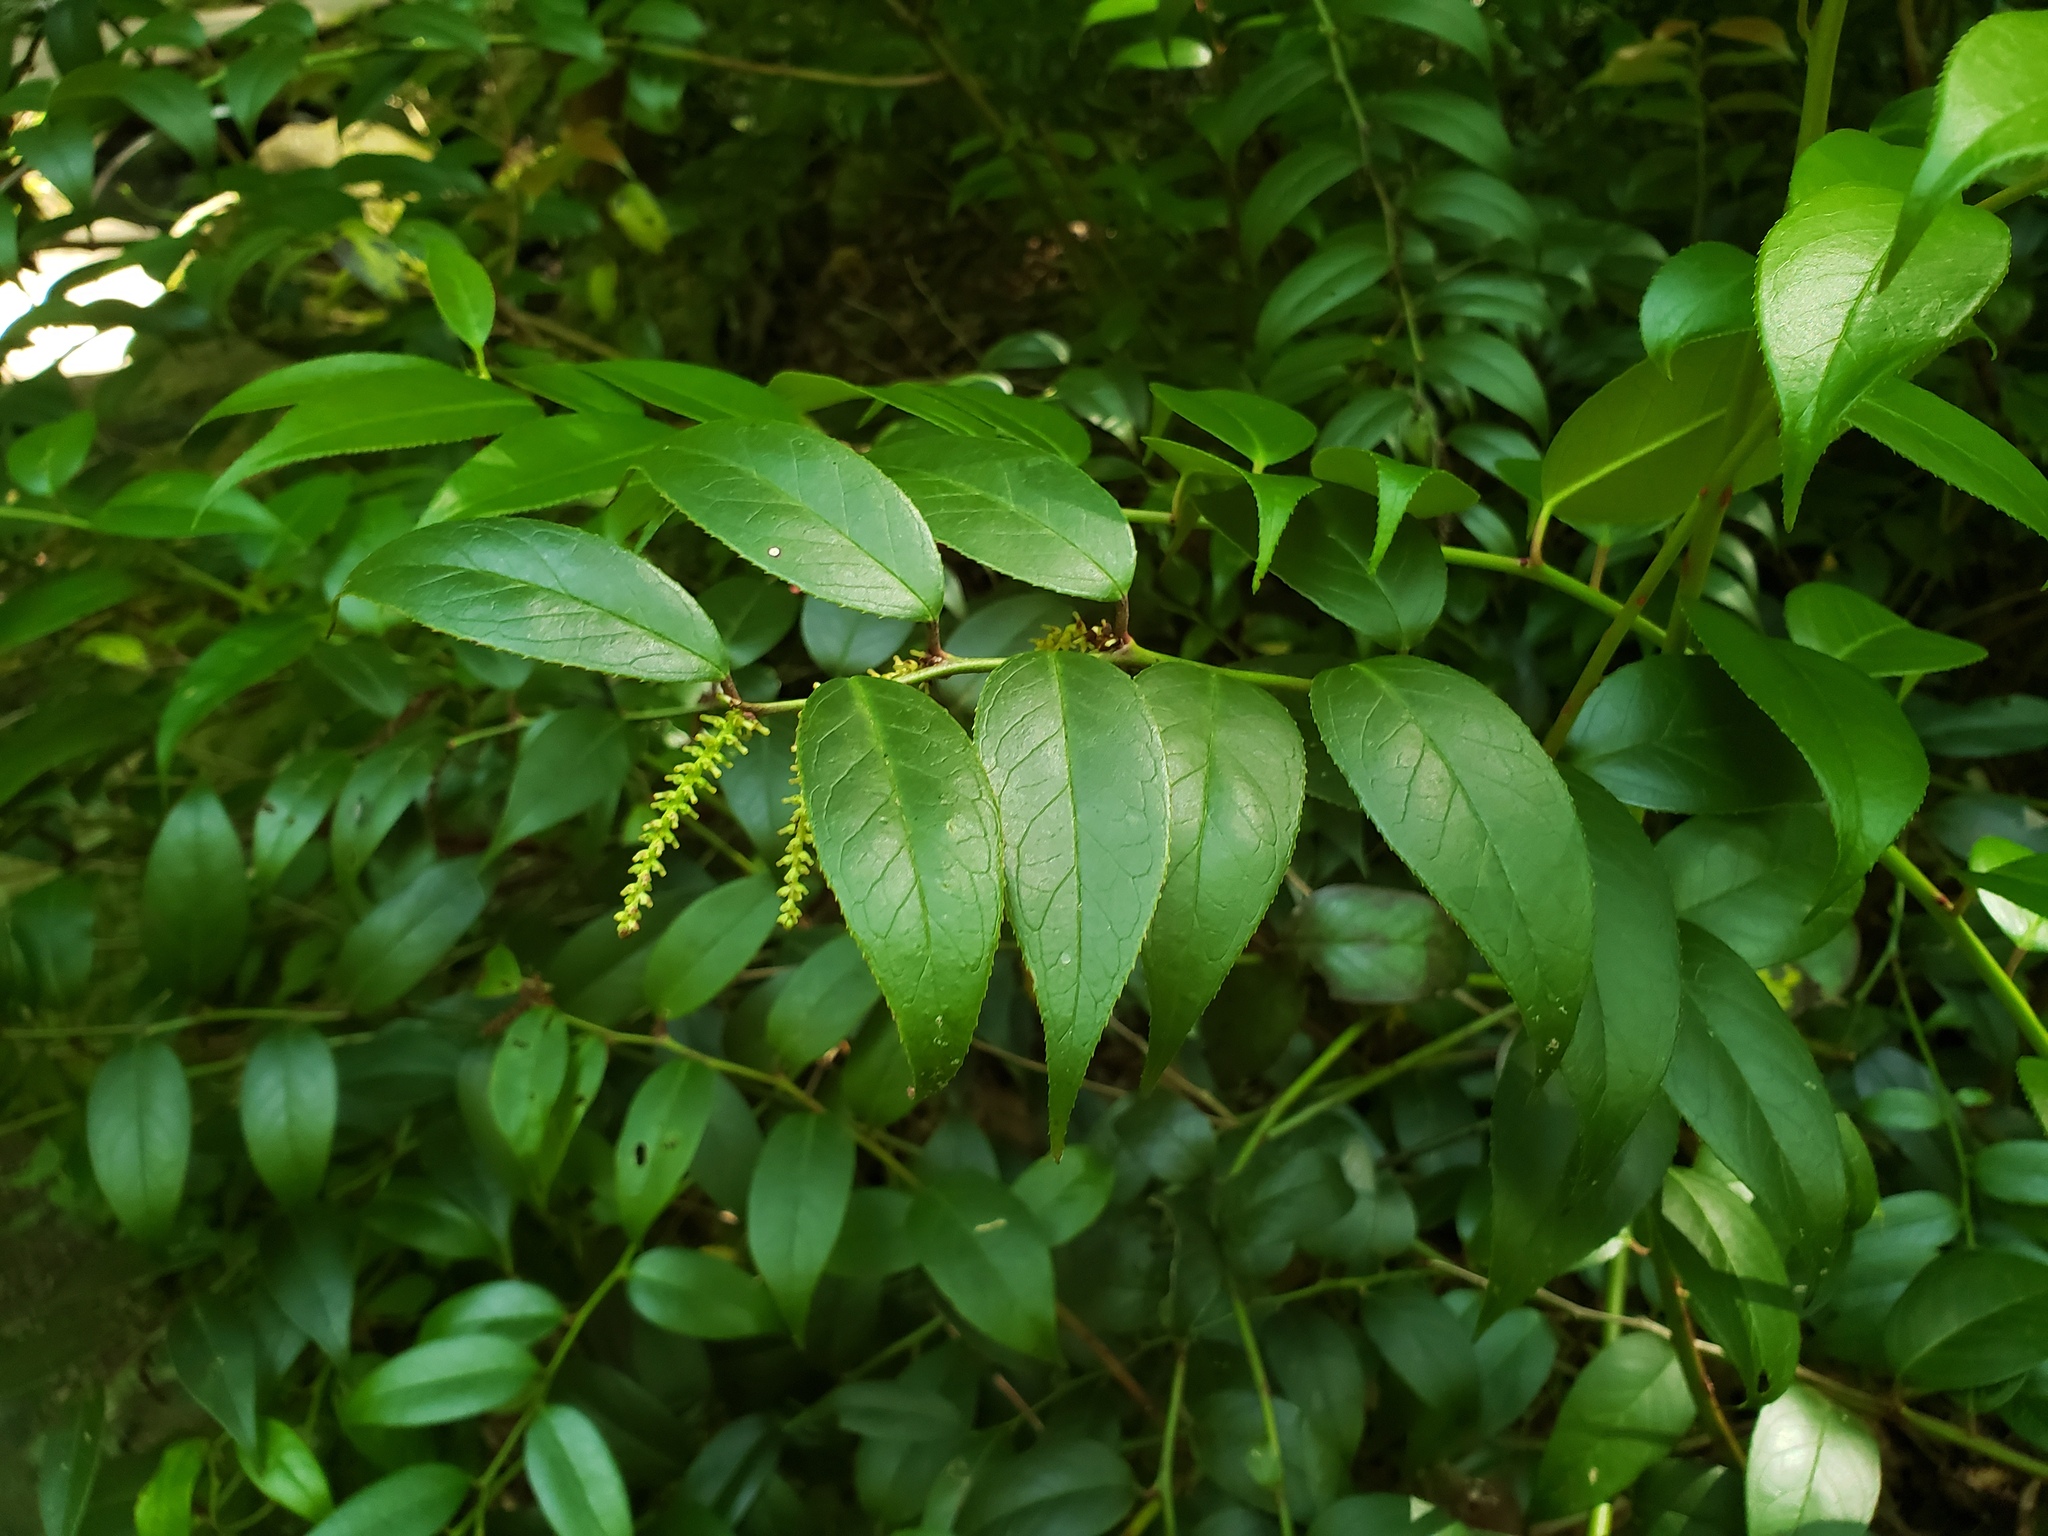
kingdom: Plantae
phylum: Tracheophyta
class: Magnoliopsida
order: Ericales
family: Ericaceae
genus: Leucothoe
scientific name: Leucothoe fontanesiana
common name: Fetterbush
